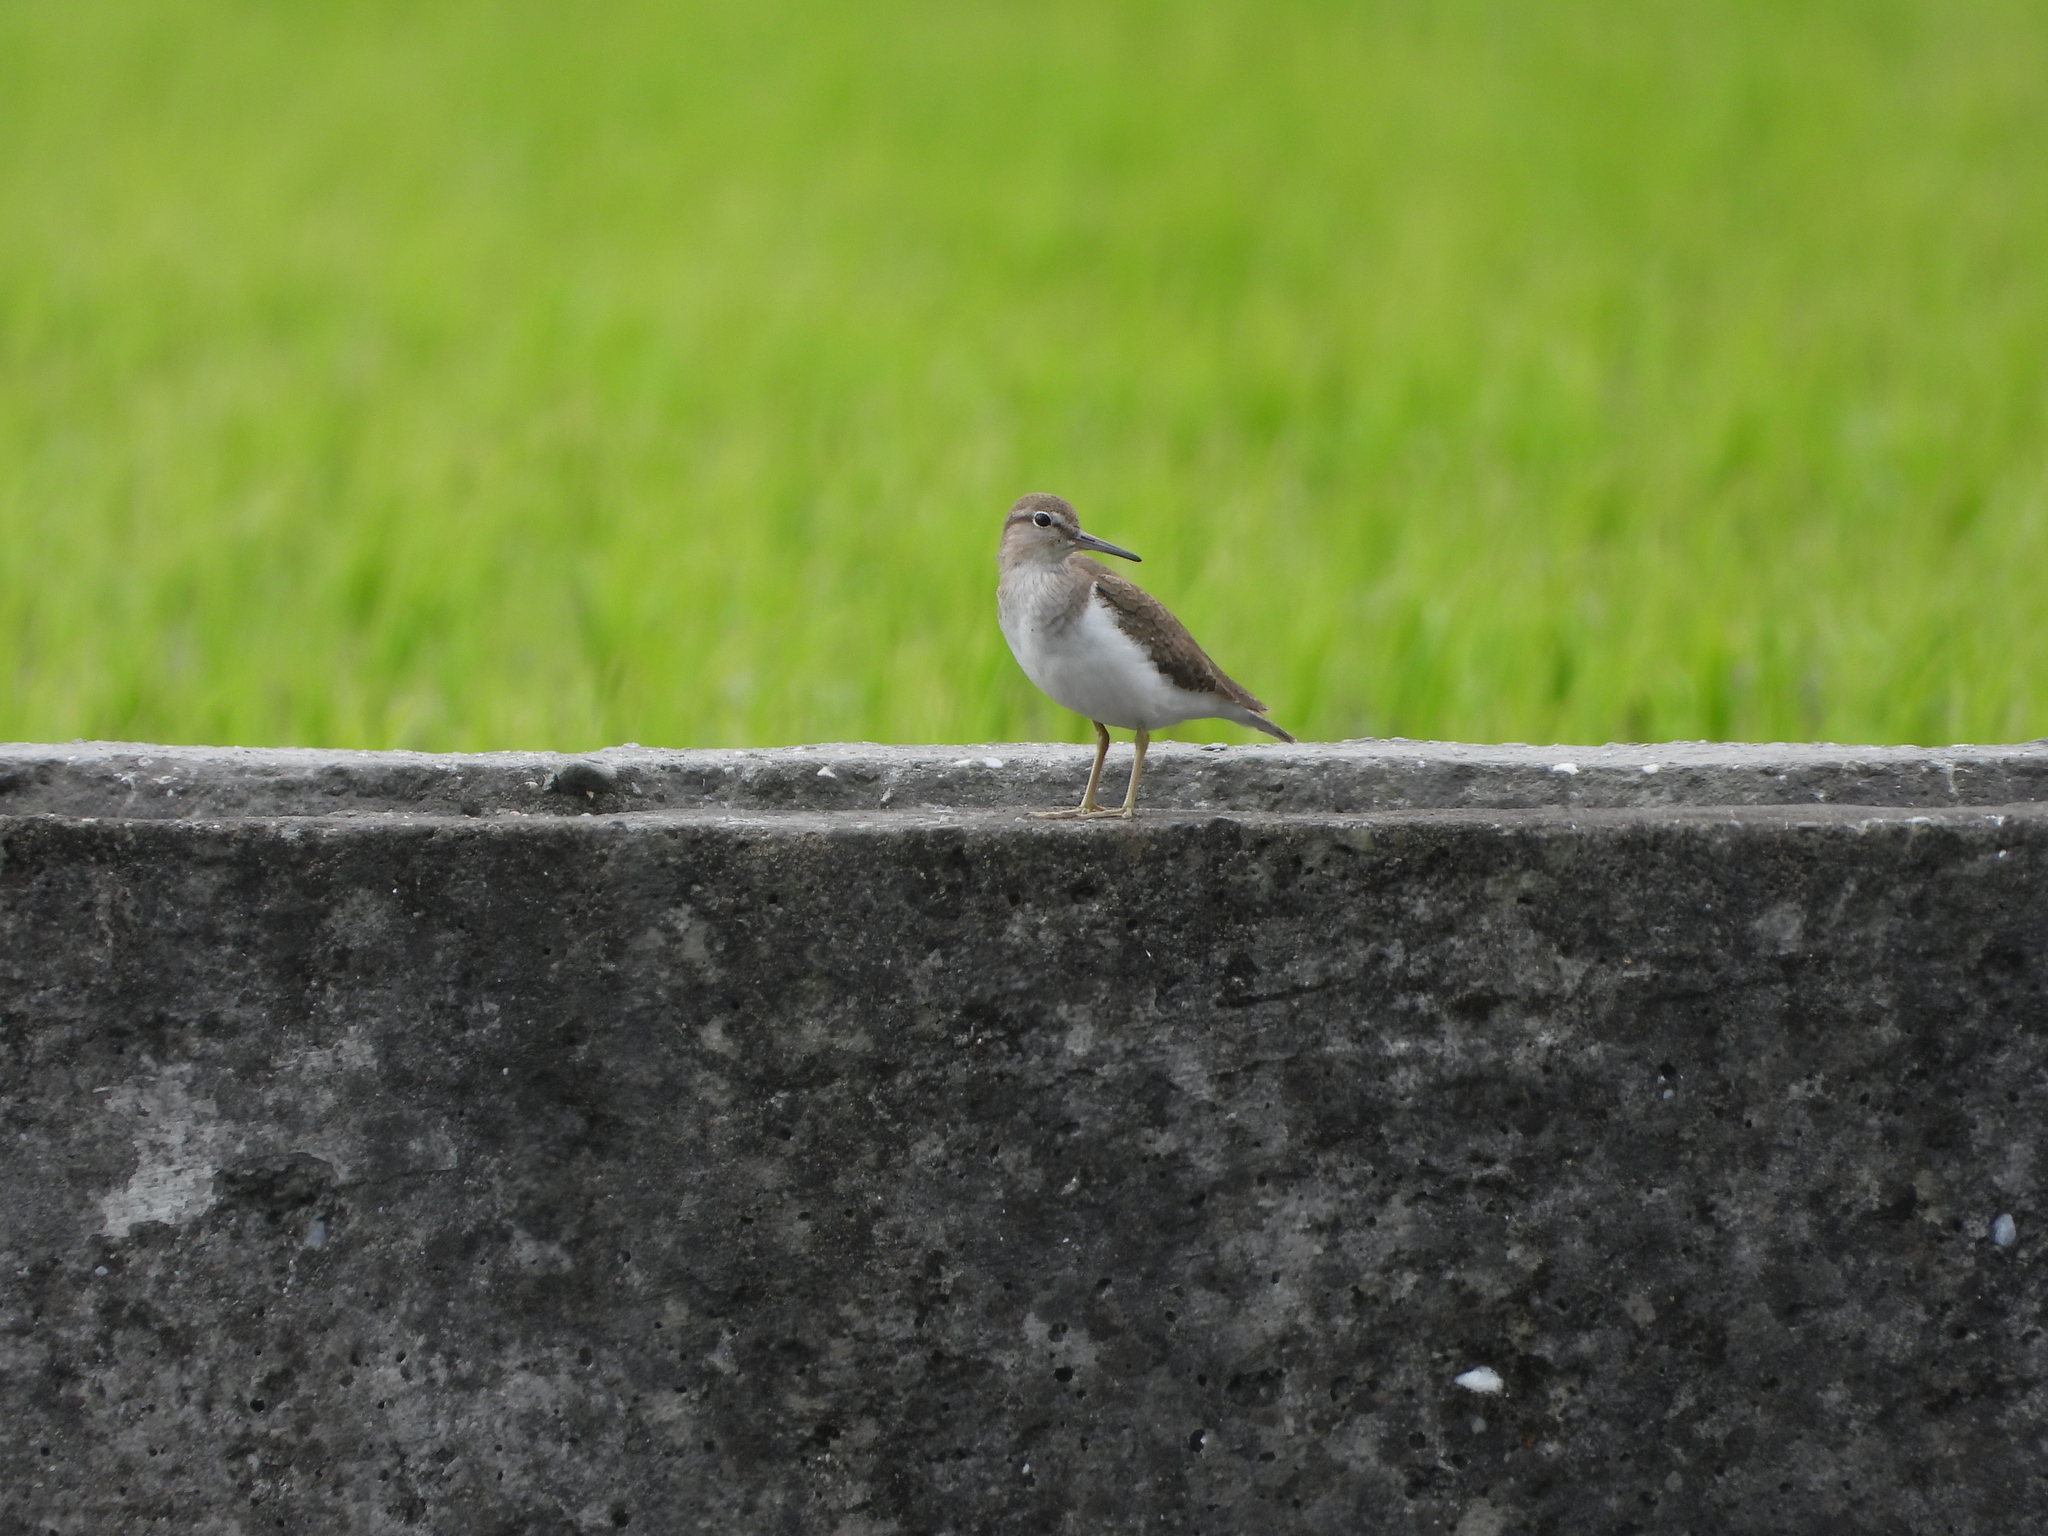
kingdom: Animalia
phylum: Chordata
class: Aves
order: Charadriiformes
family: Scolopacidae
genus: Actitis
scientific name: Actitis hypoleucos
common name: Common sandpiper
